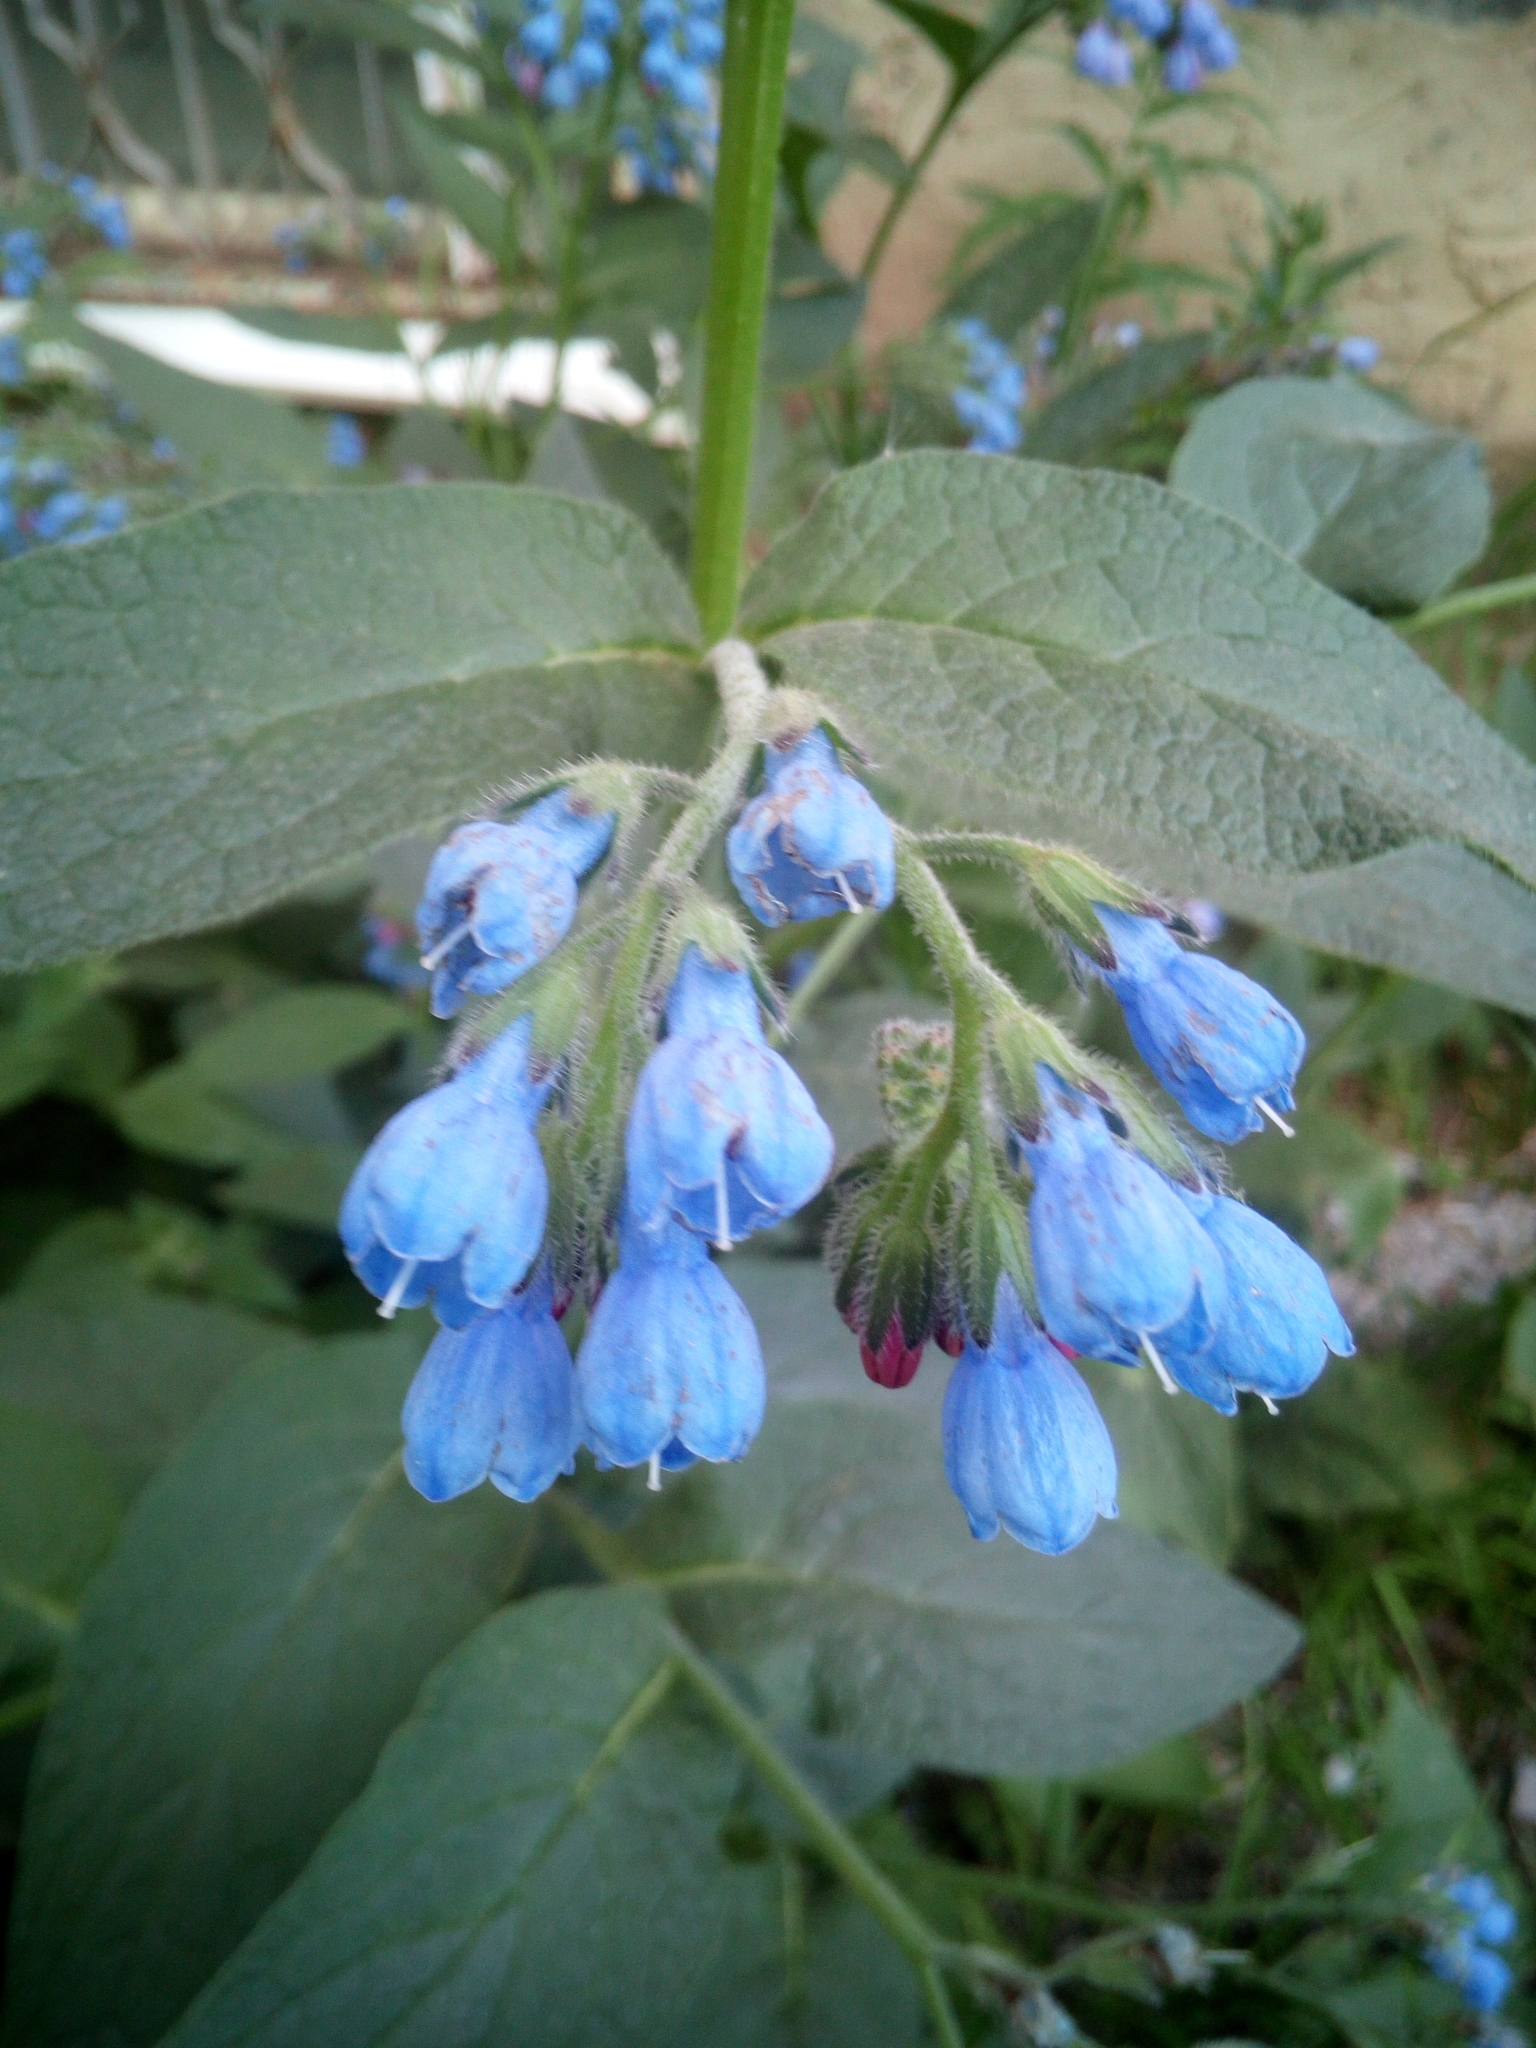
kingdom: Plantae
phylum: Tracheophyta
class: Magnoliopsida
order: Boraginales
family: Boraginaceae
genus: Symphytum
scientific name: Symphytum caucasicum
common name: Caucasian comfrey
